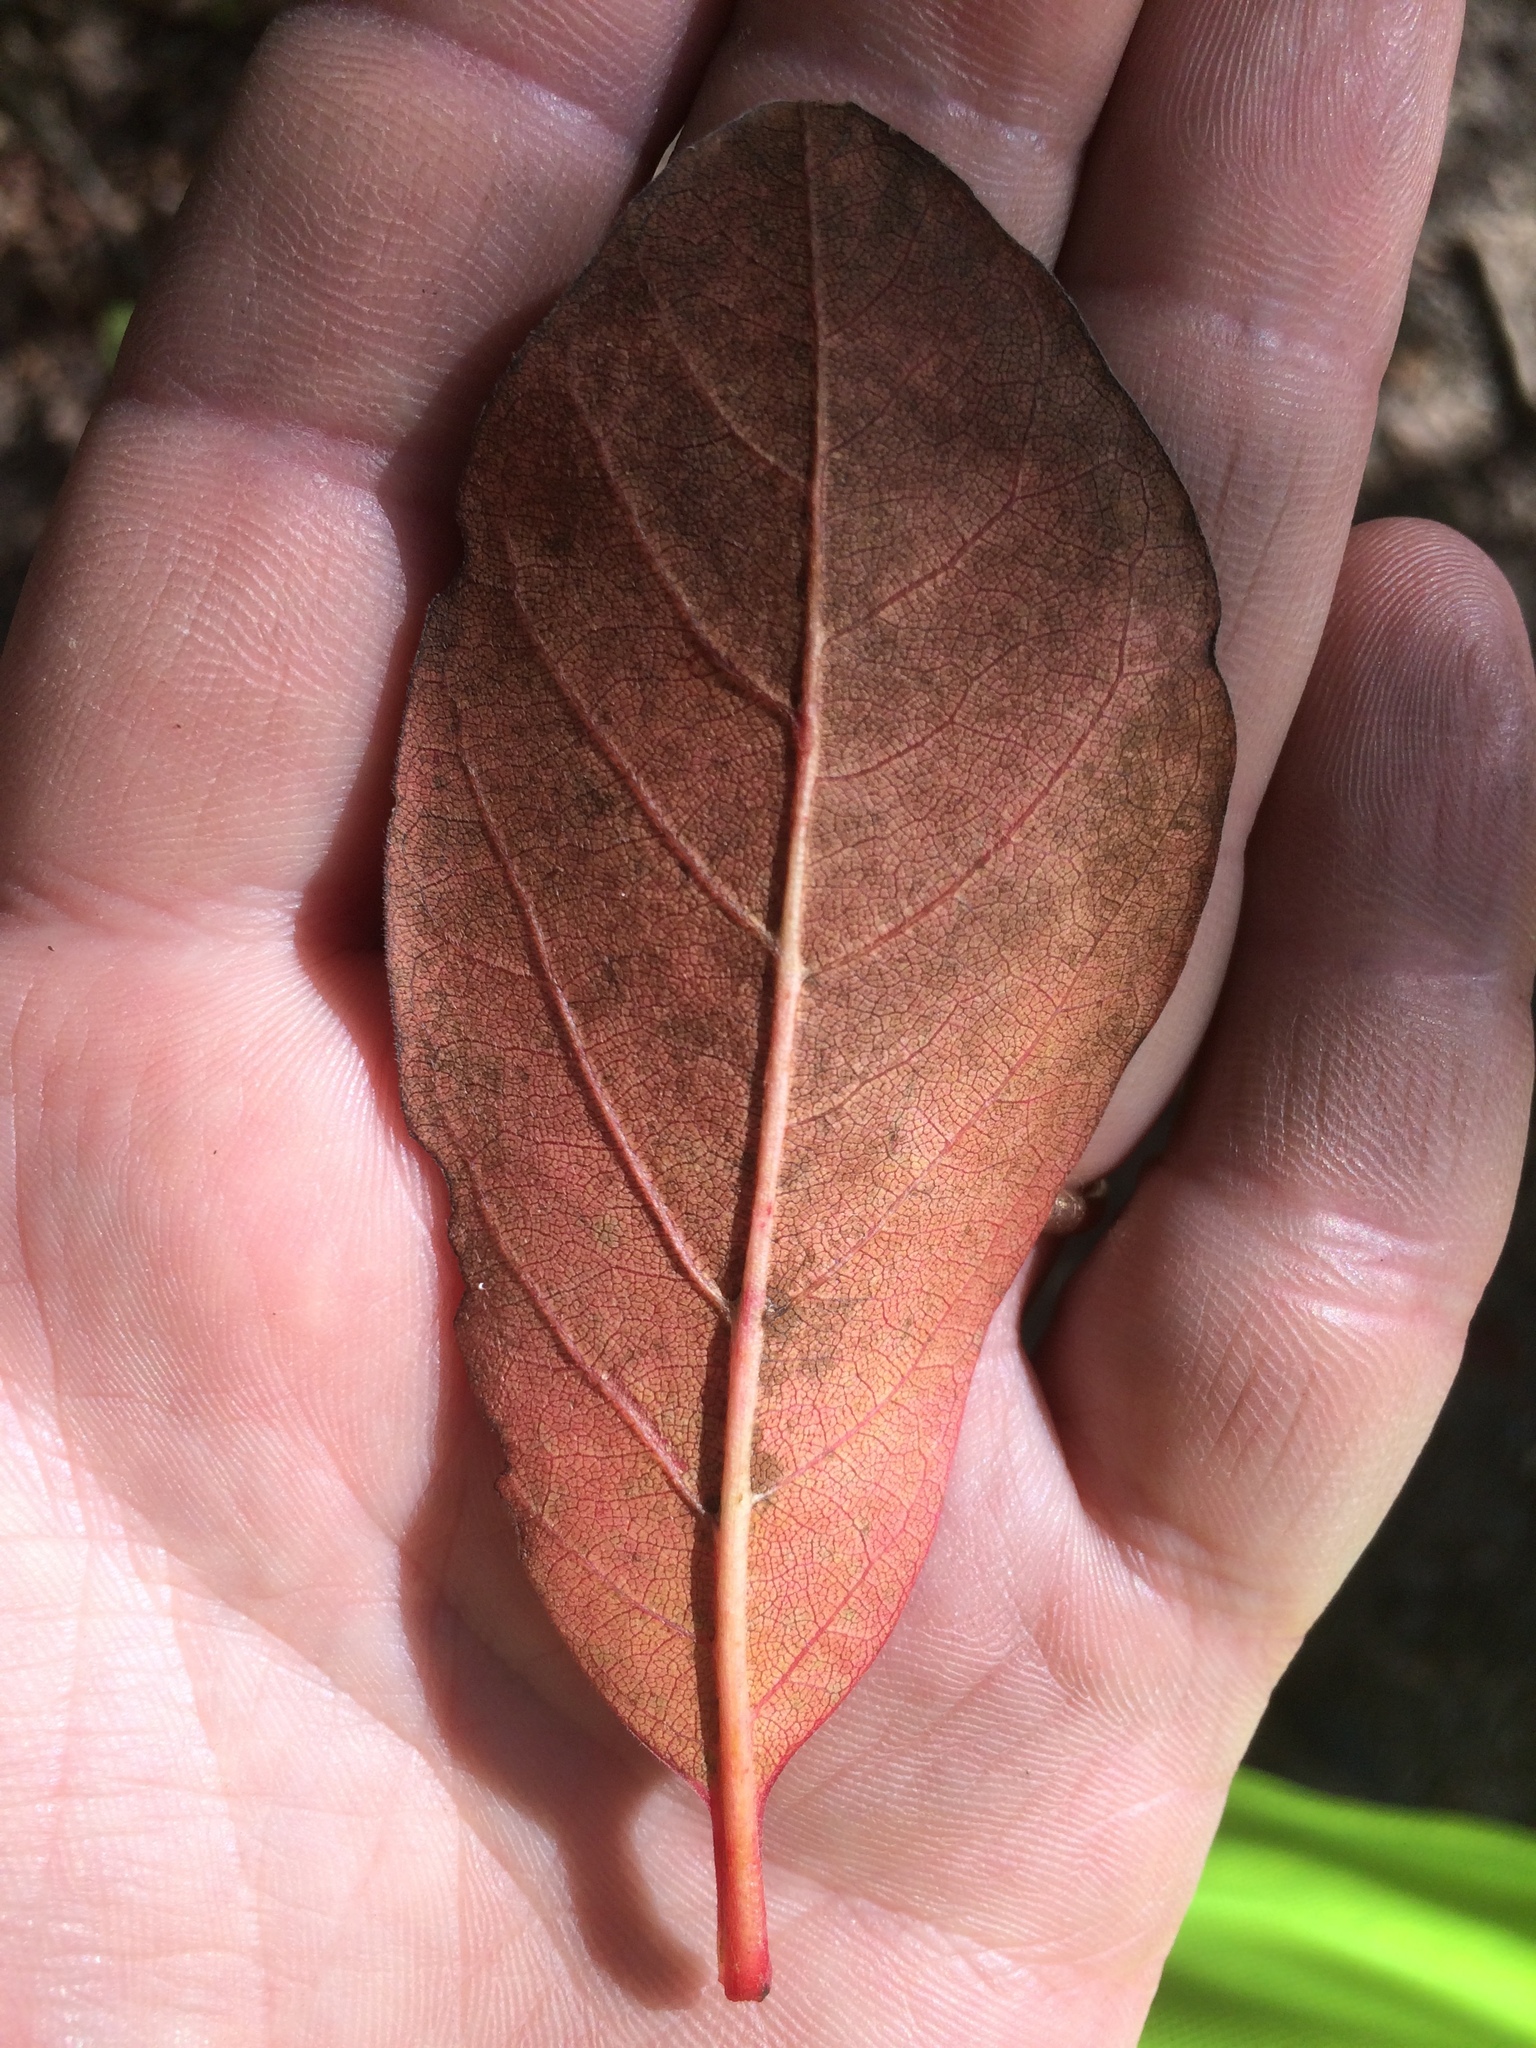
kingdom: Plantae
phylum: Tracheophyta
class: Magnoliopsida
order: Cornales
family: Nyssaceae
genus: Nyssa
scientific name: Nyssa sylvatica
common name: Black tupelo
